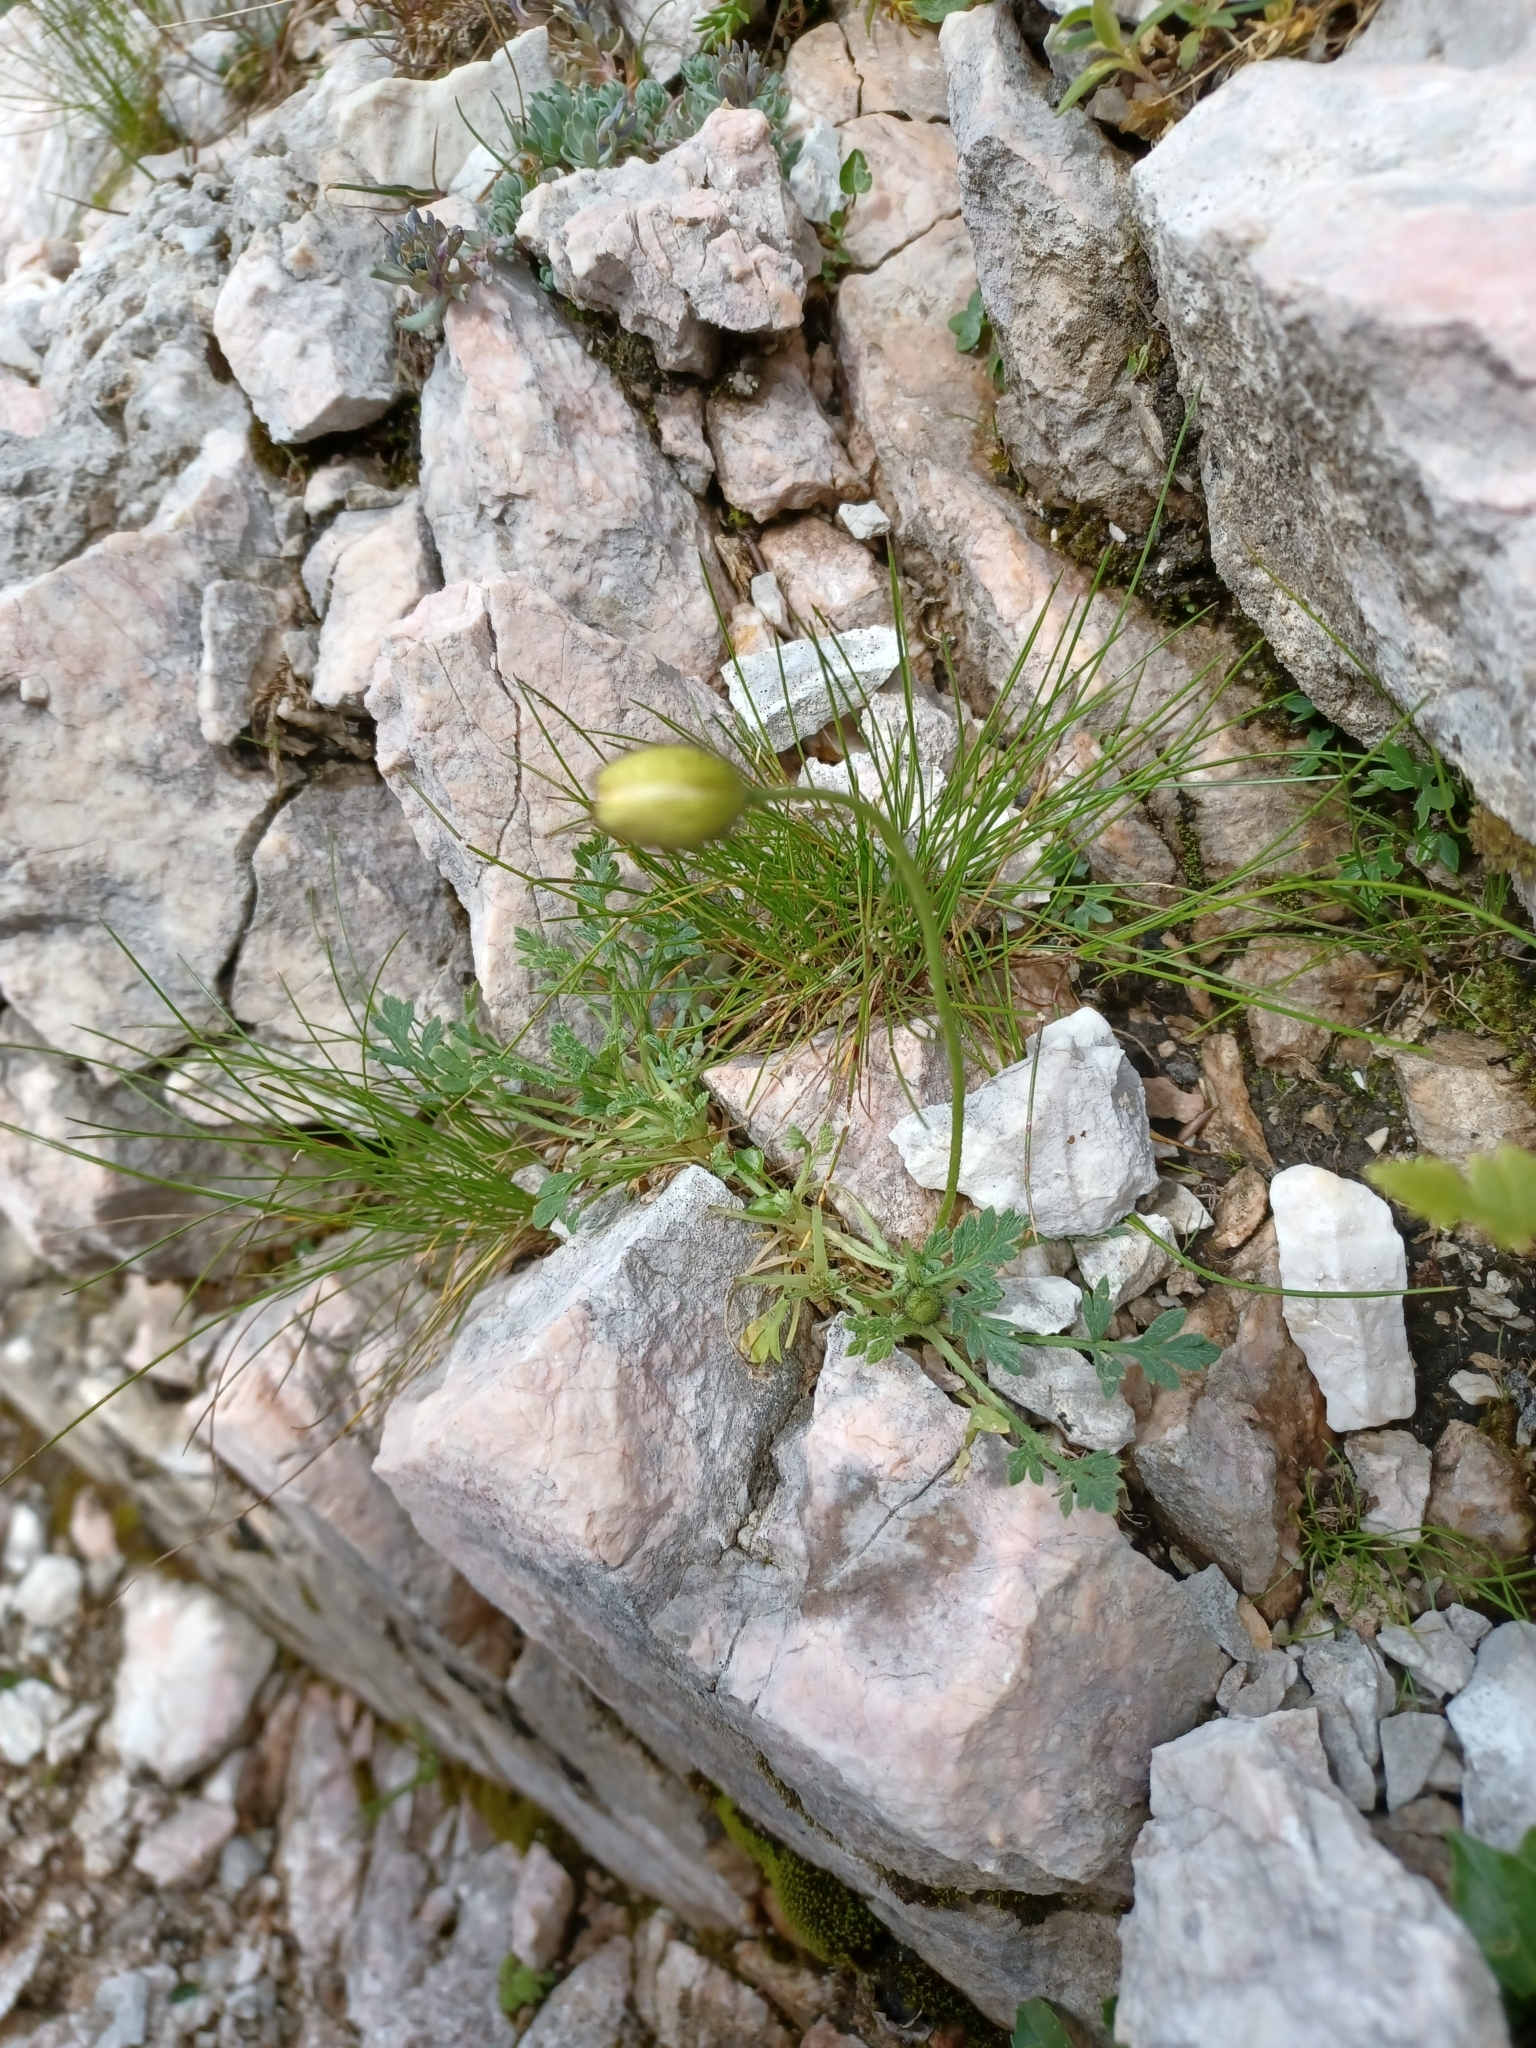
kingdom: Plantae
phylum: Tracheophyta
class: Magnoliopsida
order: Ranunculales
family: Papaveraceae
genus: Papaver
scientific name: Papaver alpinum
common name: Austrian poppy
